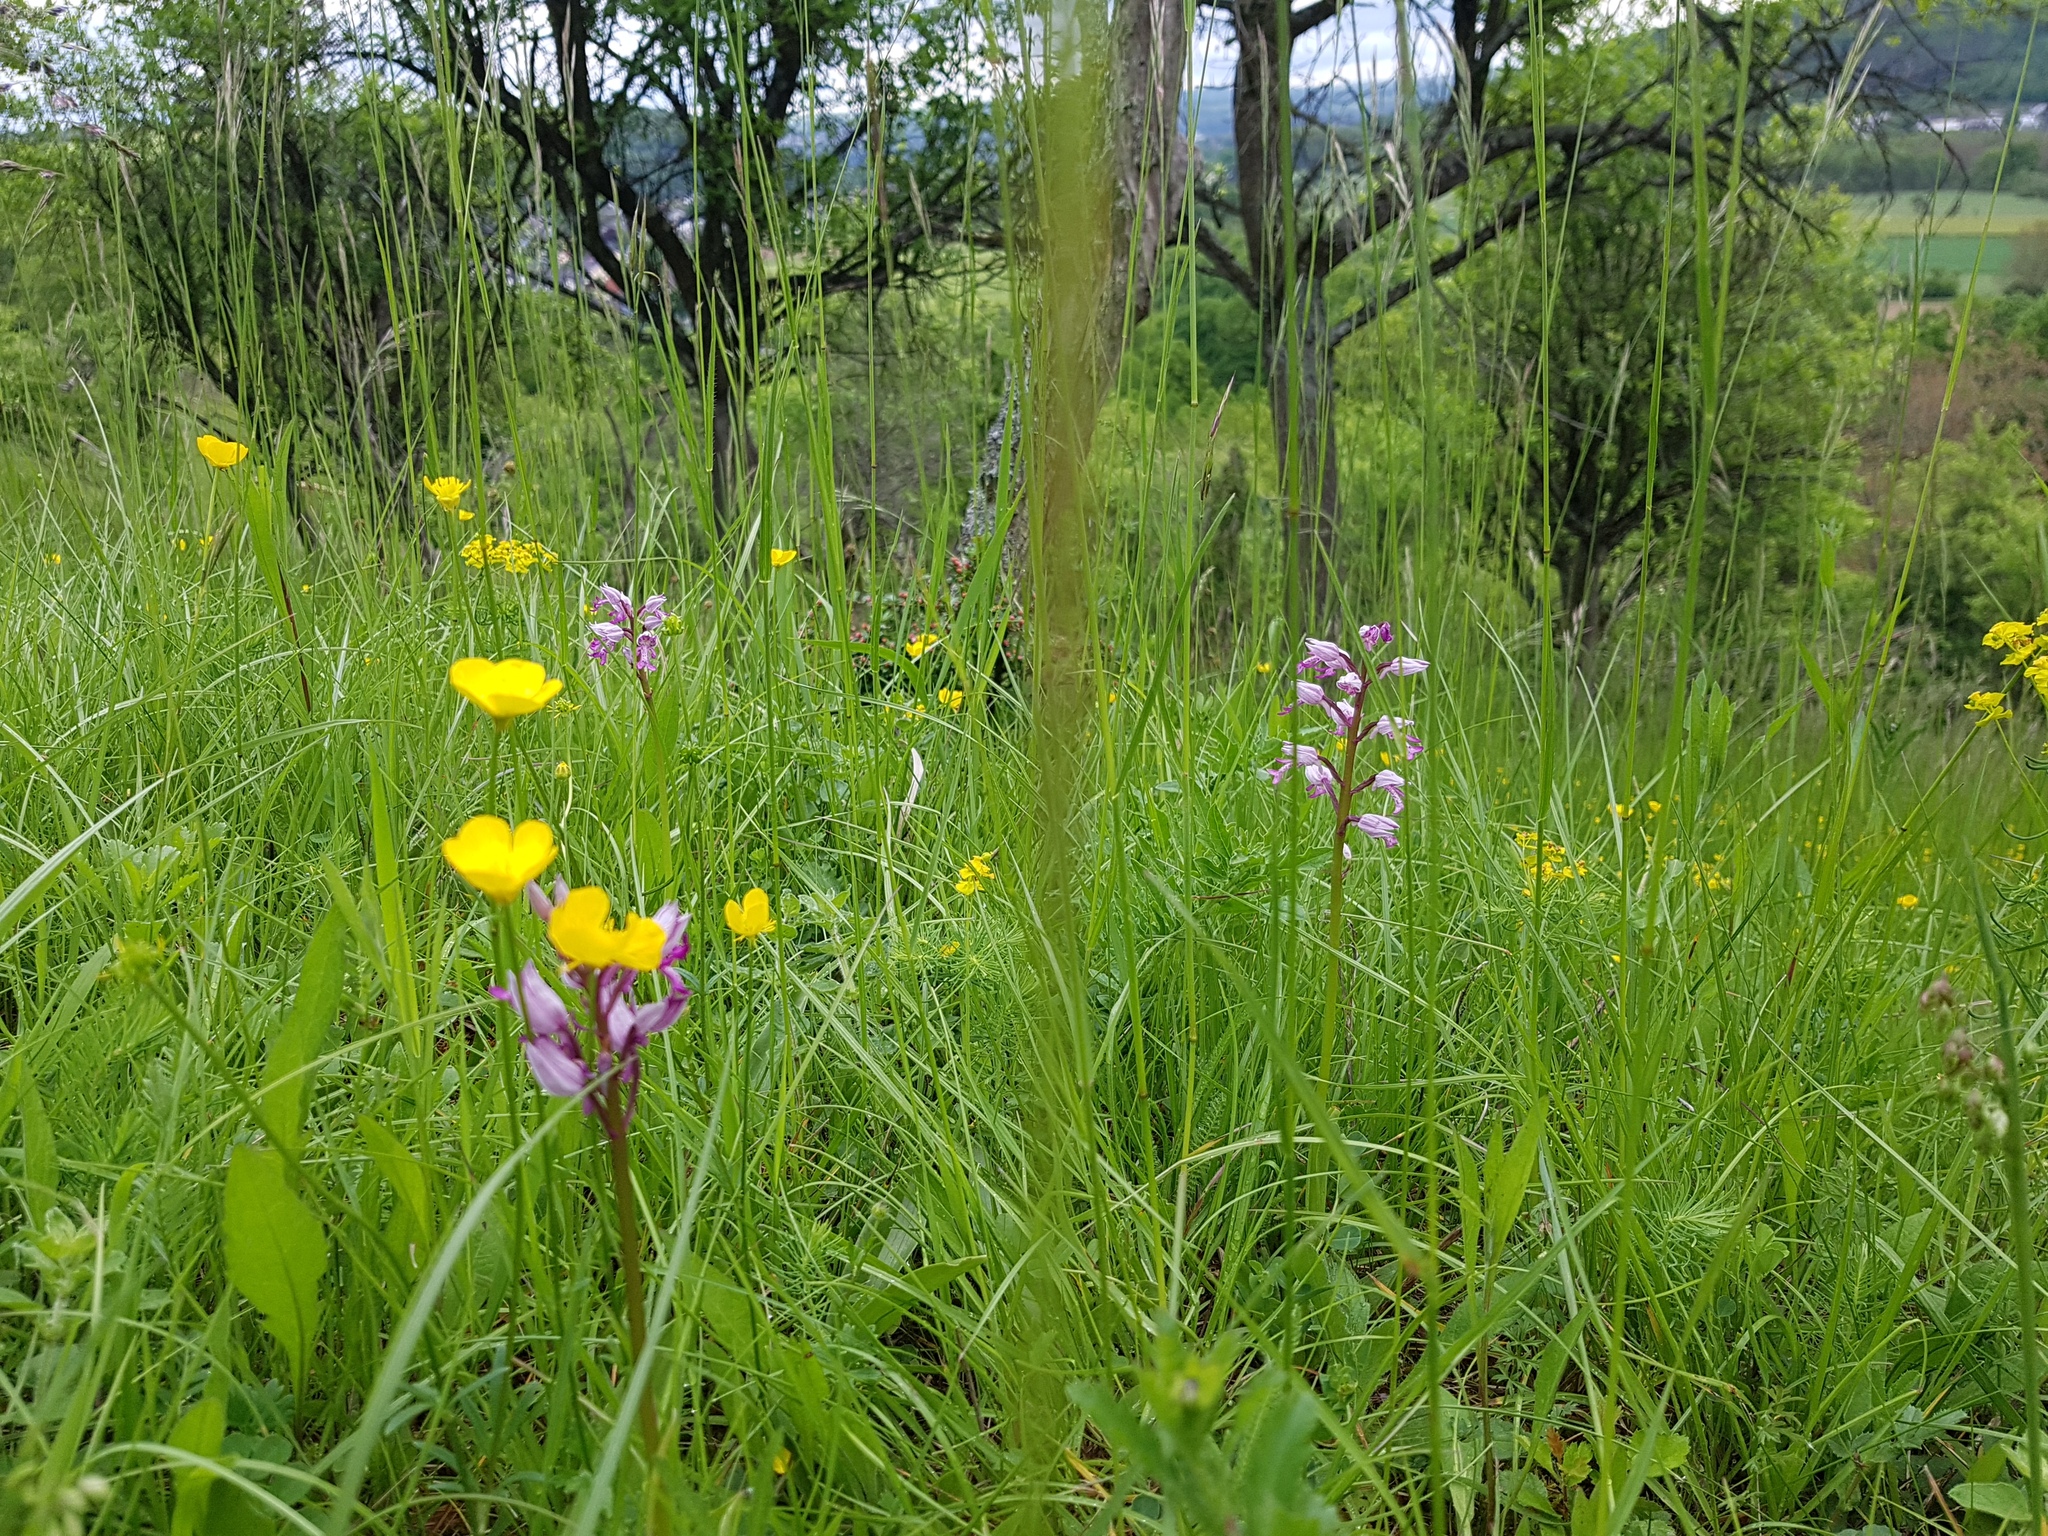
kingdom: Plantae
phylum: Tracheophyta
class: Liliopsida
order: Asparagales
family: Orchidaceae
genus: Orchis
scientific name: Orchis militaris
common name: Military orchid
